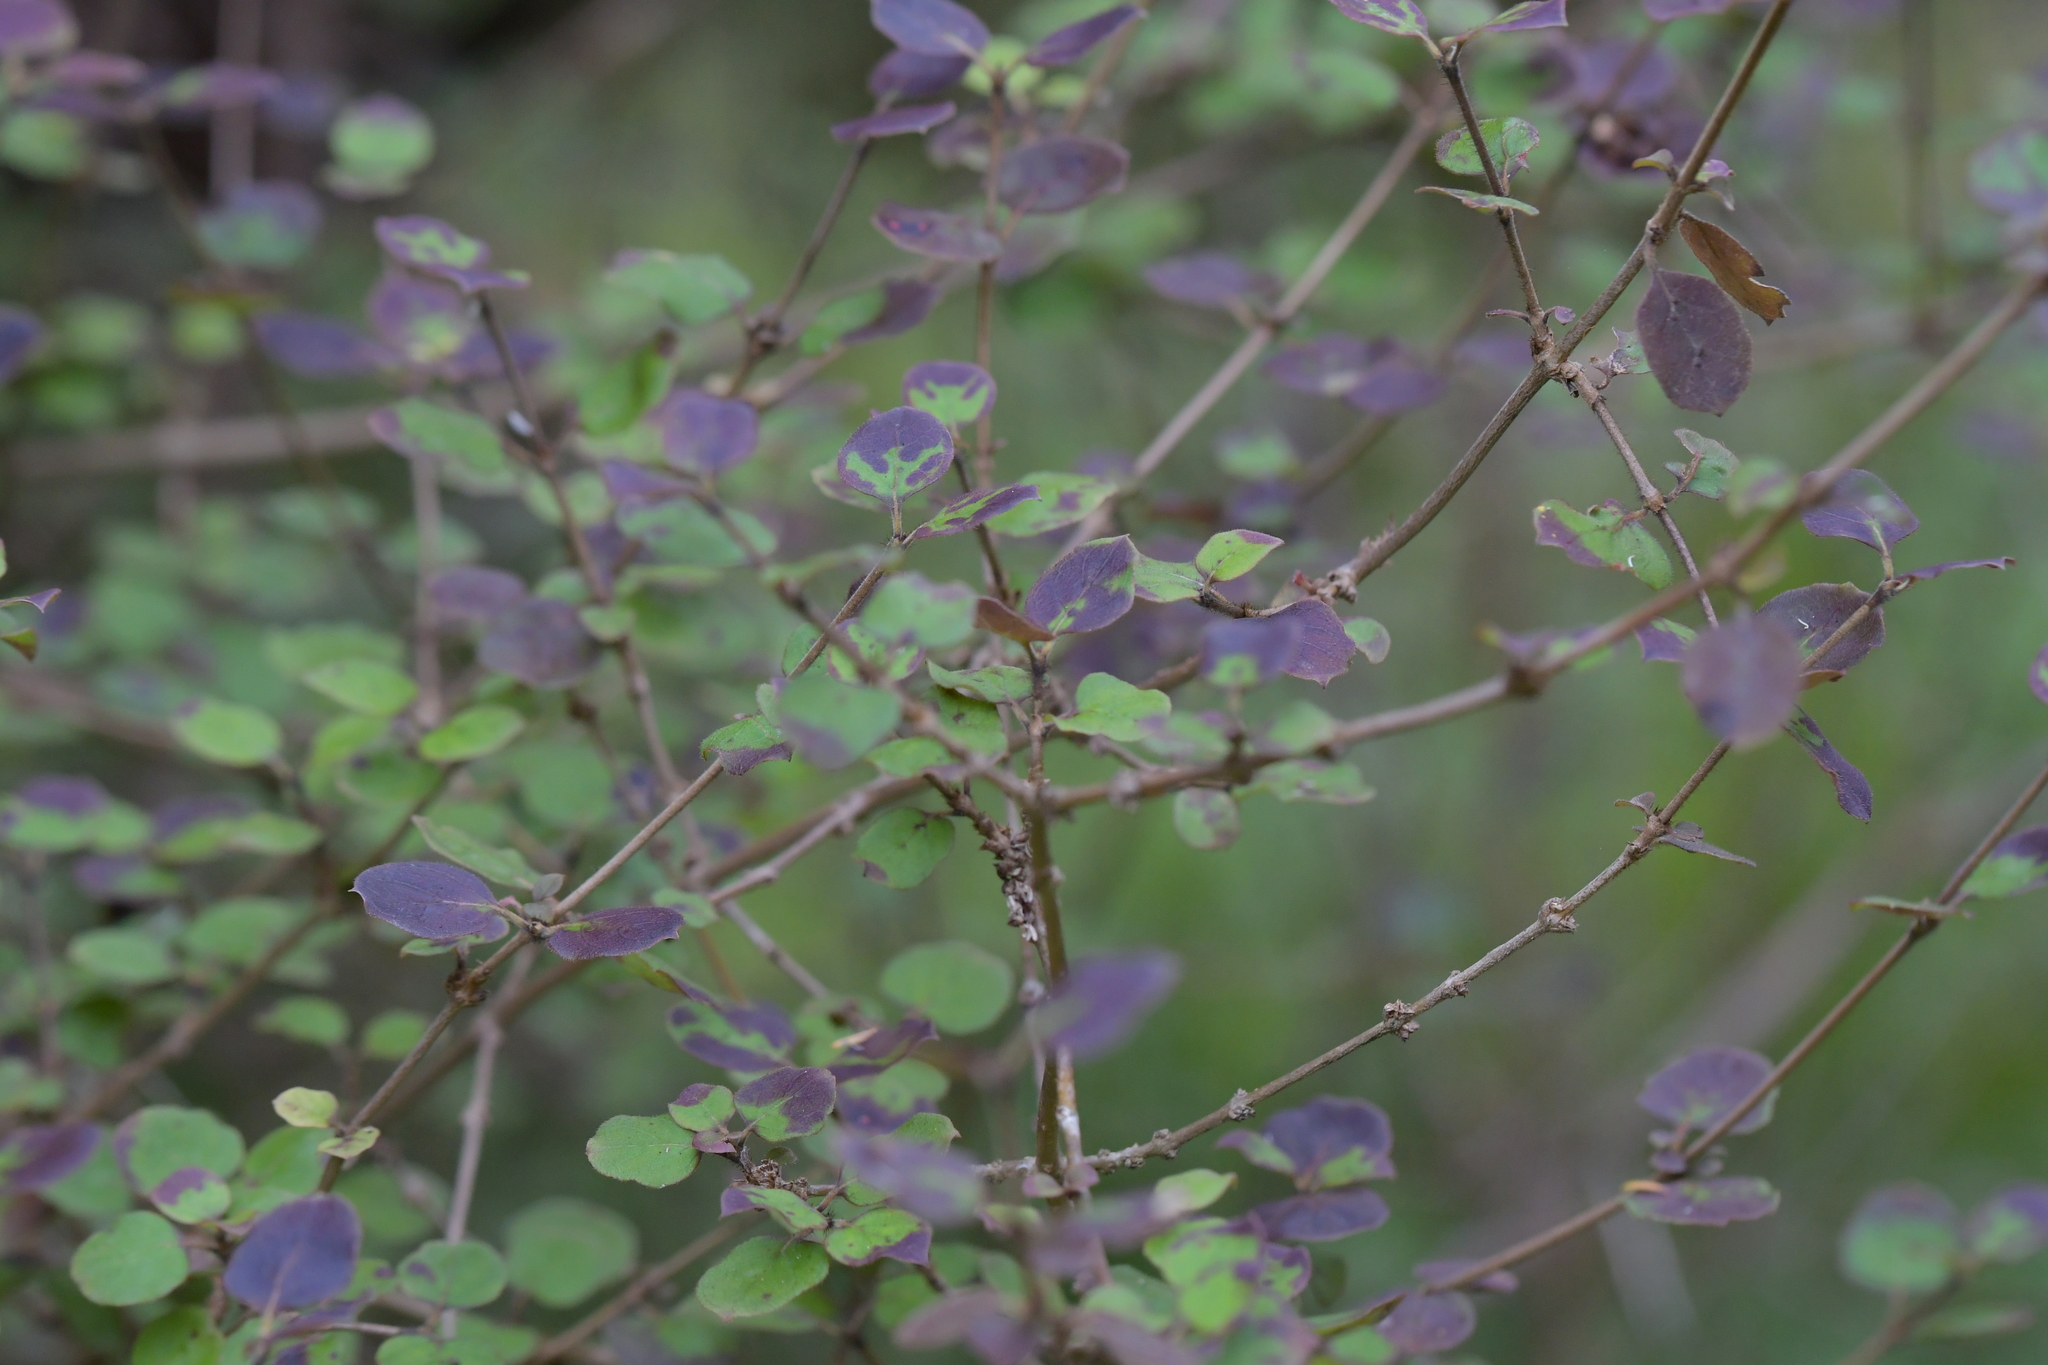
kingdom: Plantae
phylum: Tracheophyta
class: Magnoliopsida
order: Gentianales
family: Rubiaceae
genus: Coprosma
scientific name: Coprosma rotundifolia
